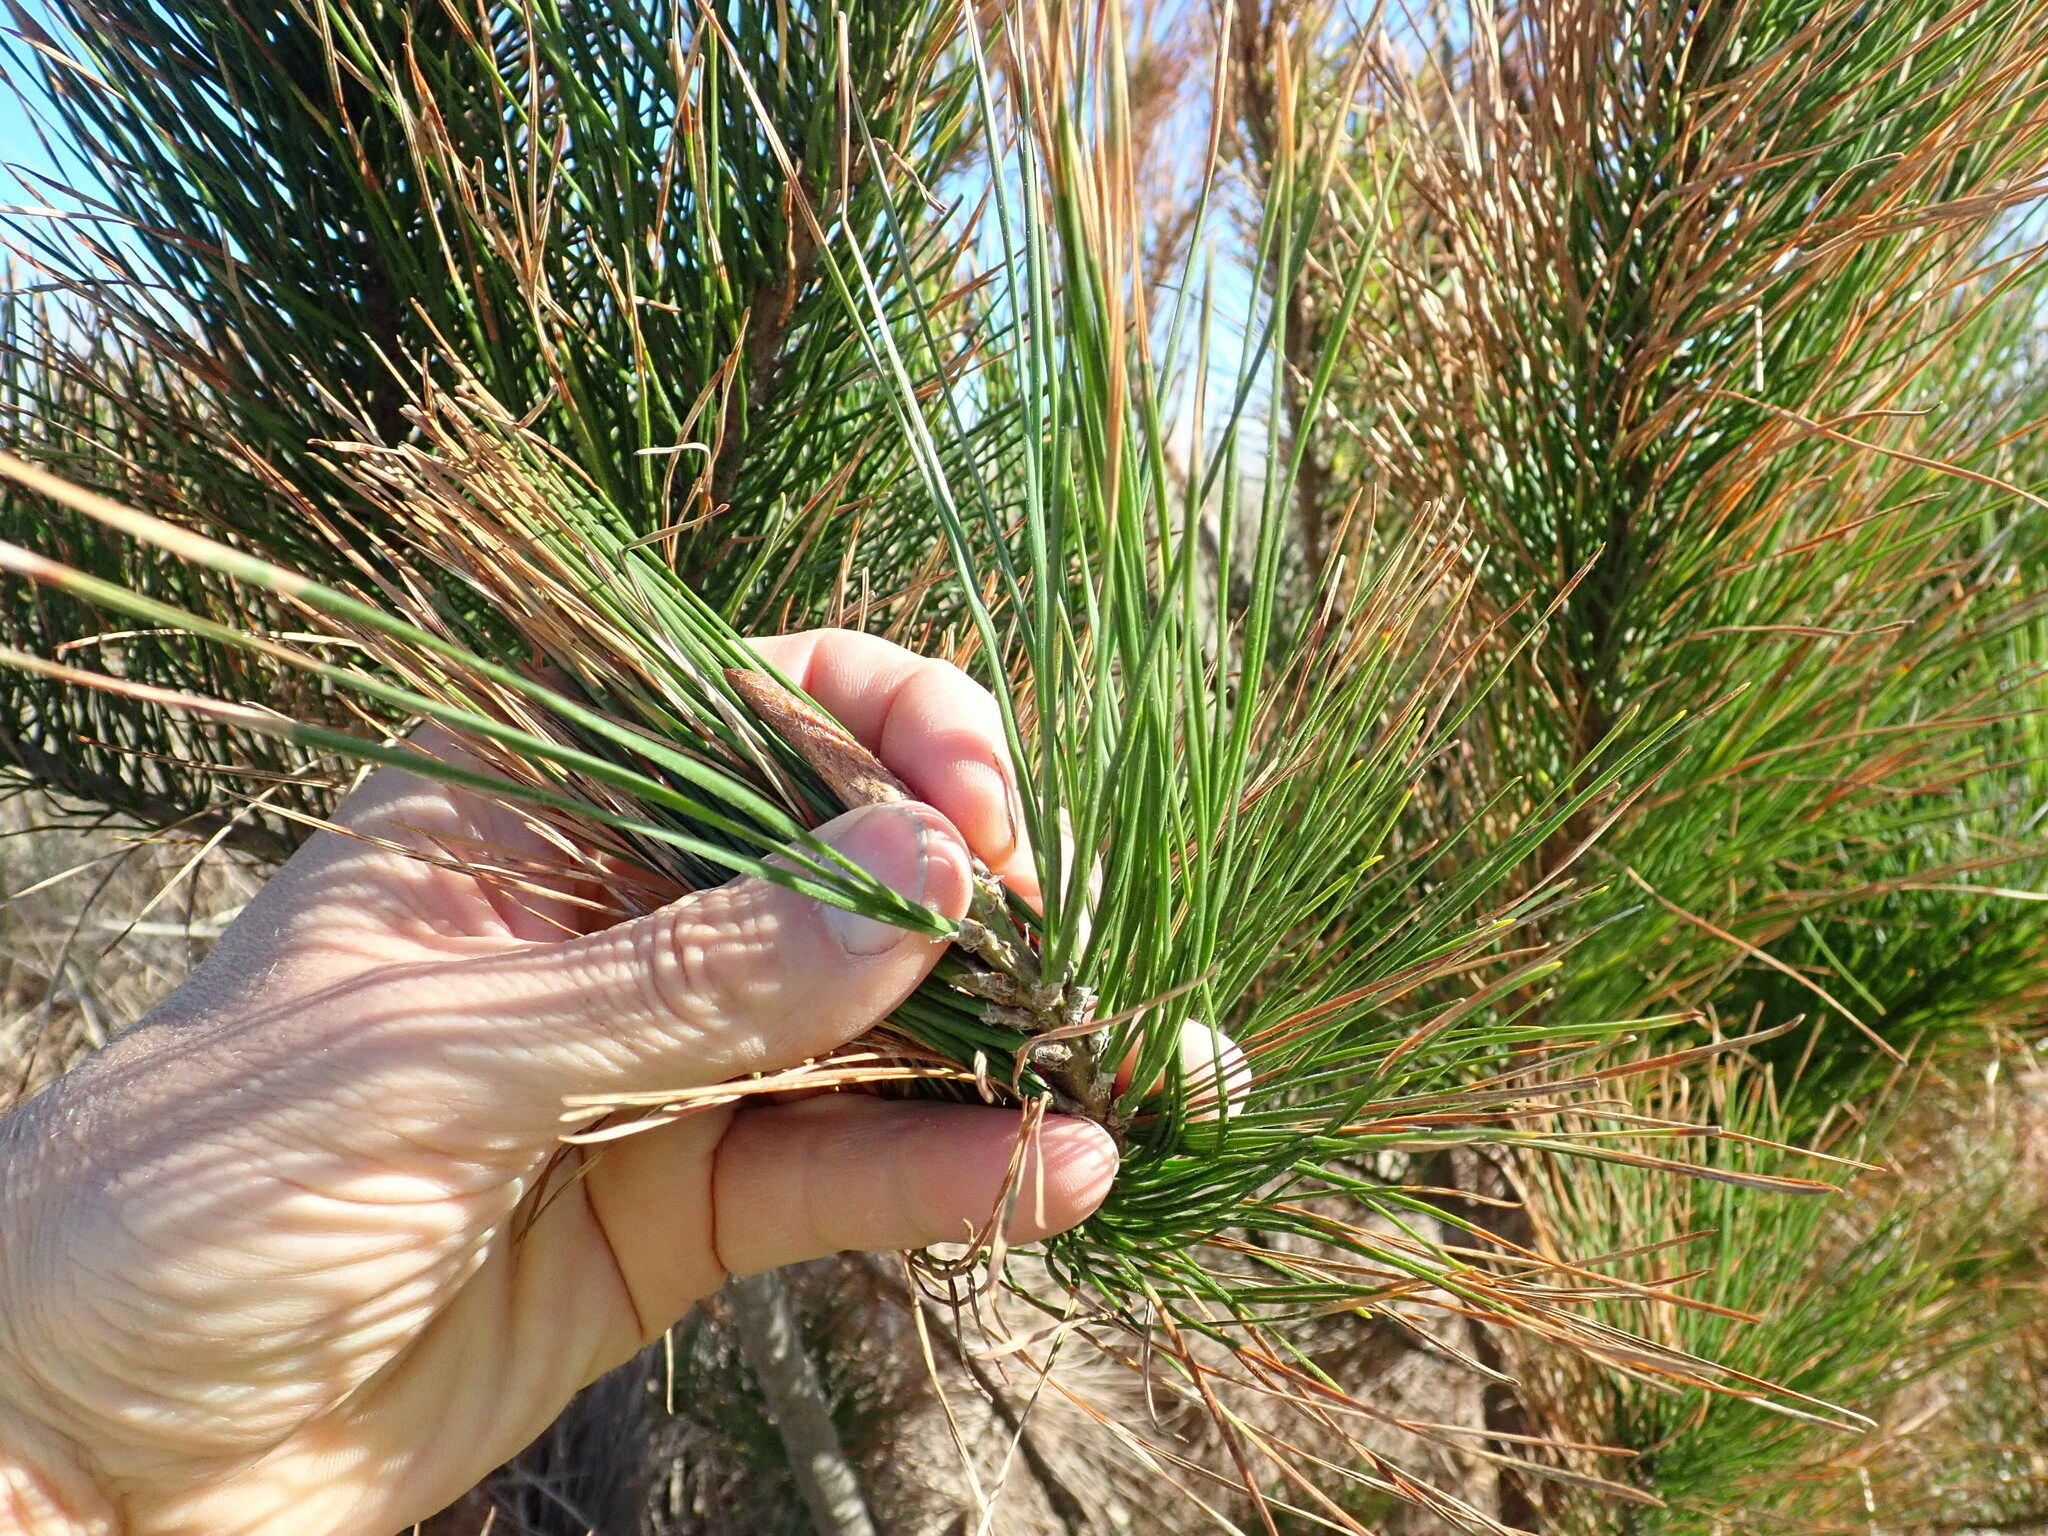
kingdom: Plantae
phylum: Tracheophyta
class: Pinopsida
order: Pinales
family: Pinaceae
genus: Pinus
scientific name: Pinus radiata
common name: Monterey pine
